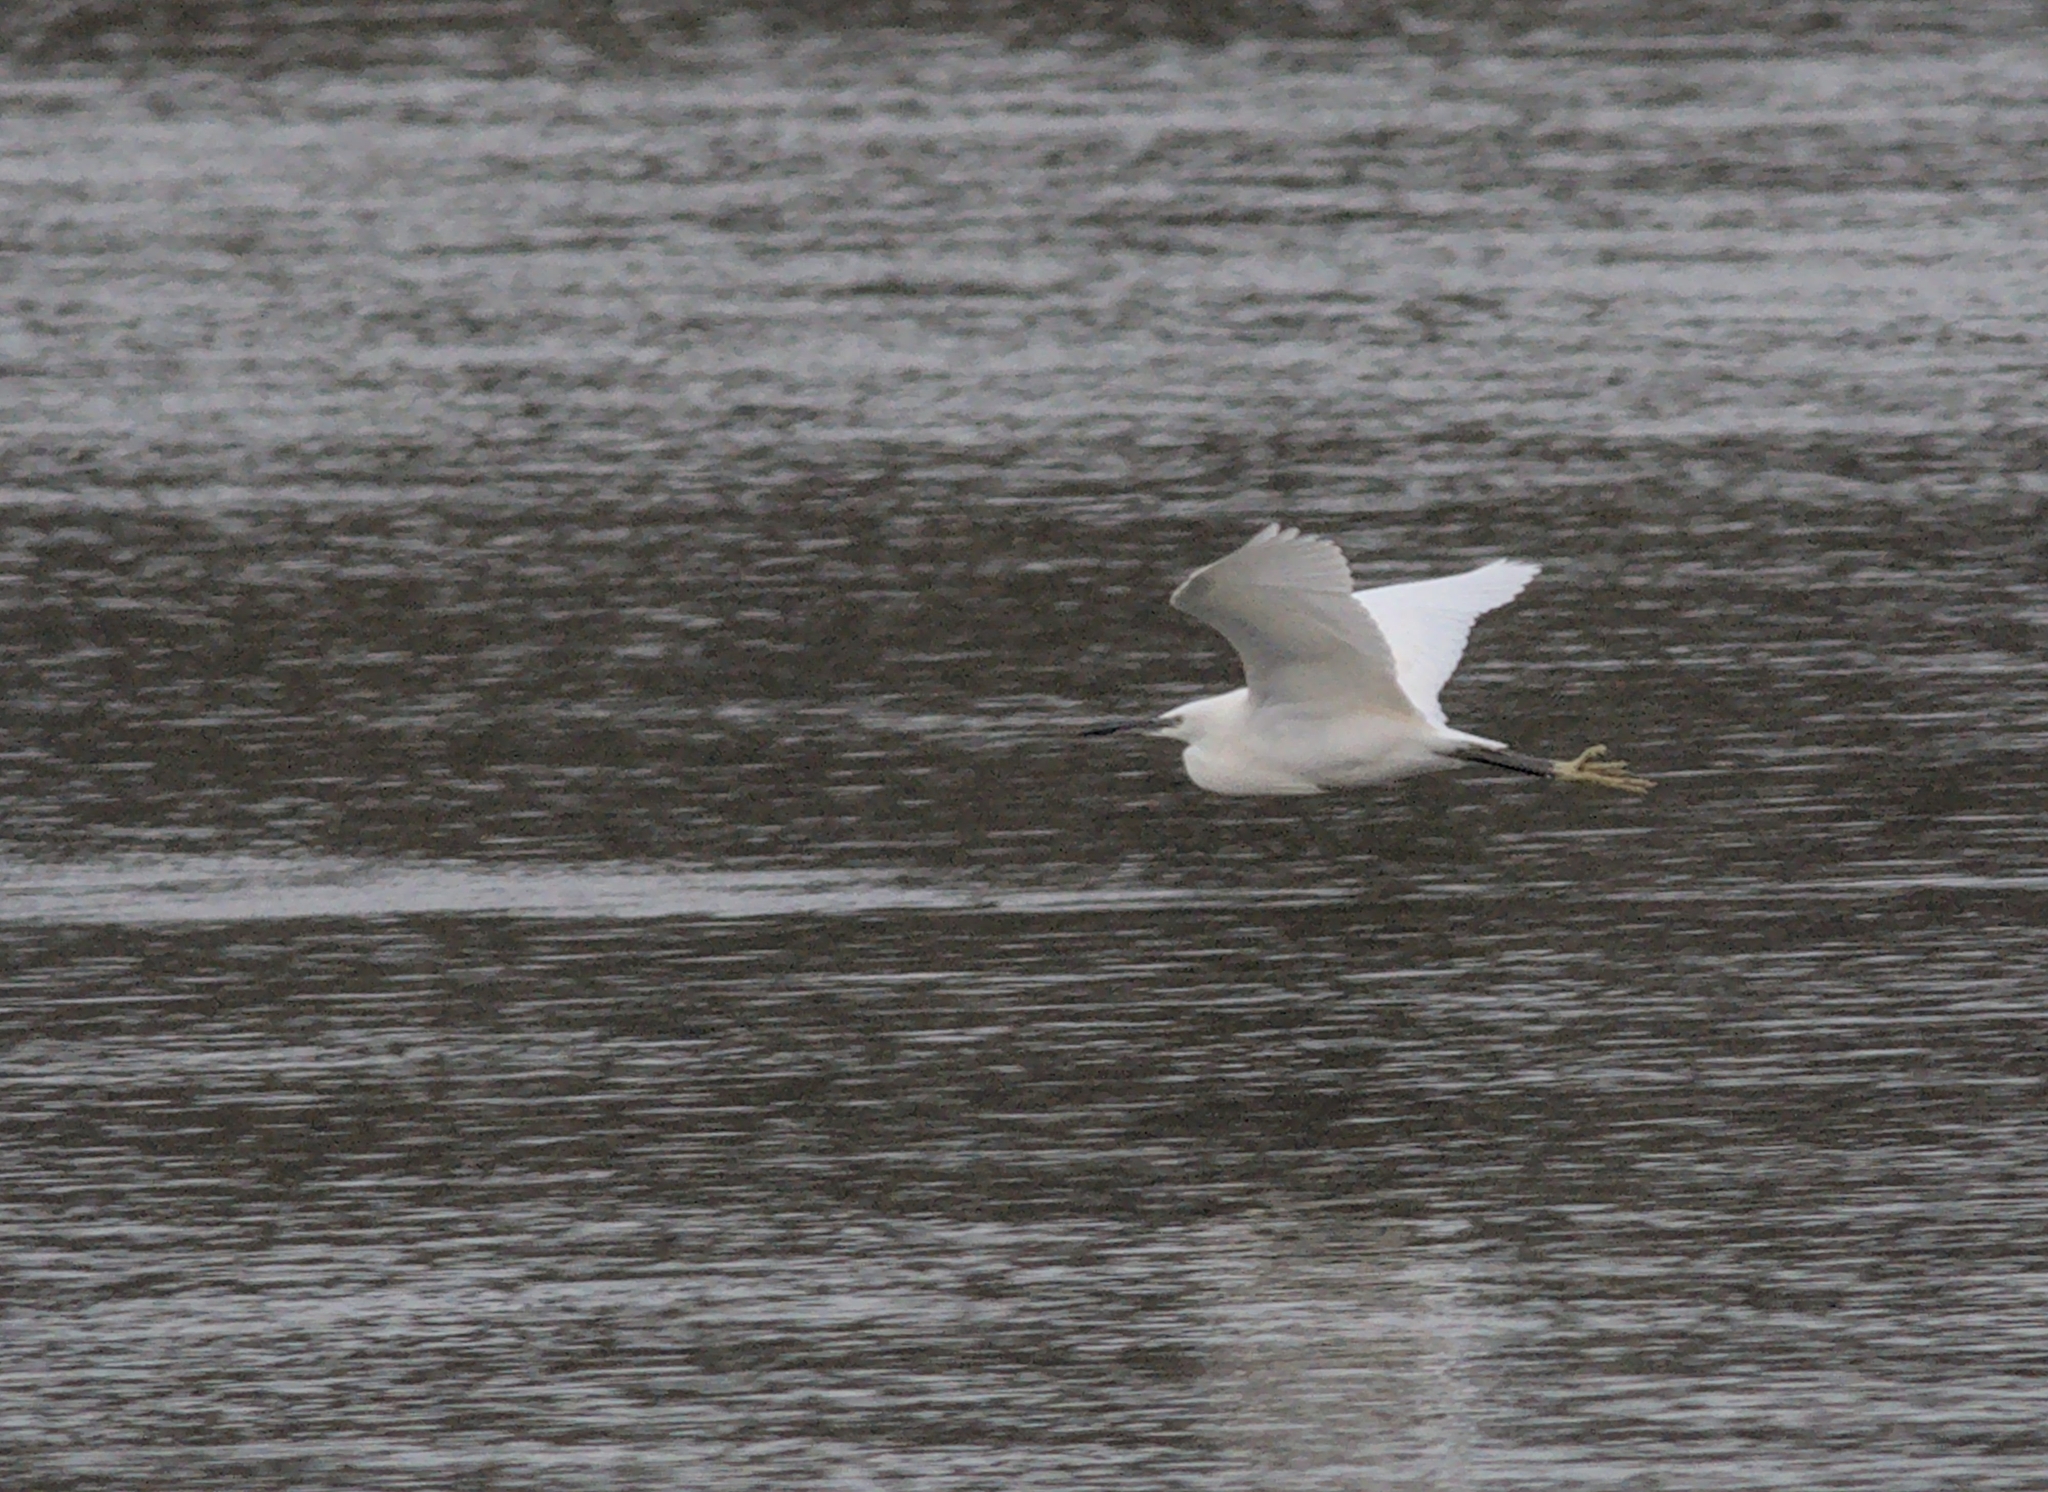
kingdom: Animalia
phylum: Chordata
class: Aves
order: Pelecaniformes
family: Ardeidae
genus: Egretta
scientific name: Egretta garzetta
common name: Little egret
